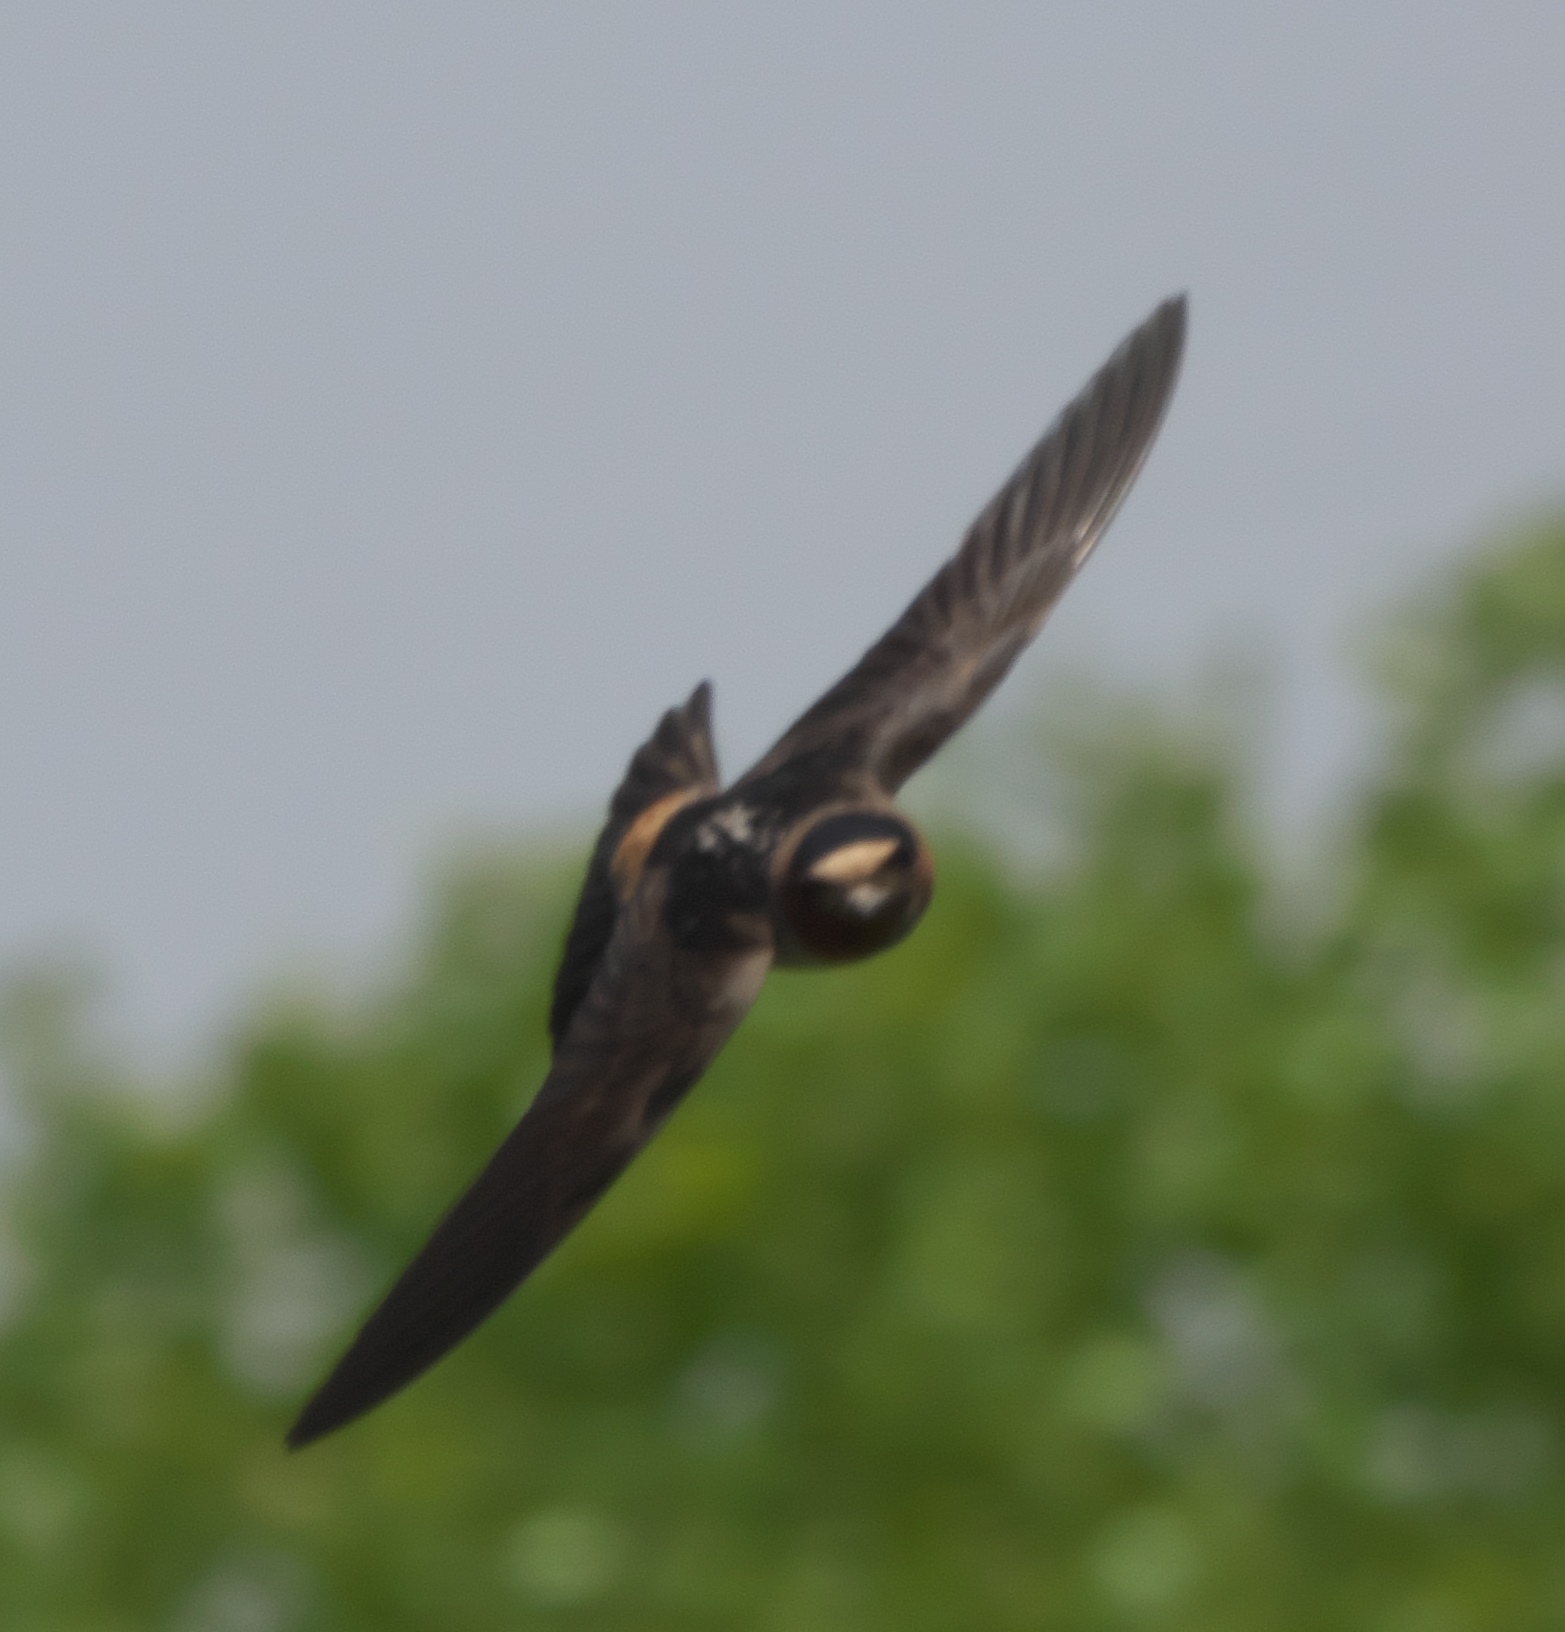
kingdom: Animalia
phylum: Chordata
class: Aves
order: Passeriformes
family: Hirundinidae
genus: Petrochelidon
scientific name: Petrochelidon pyrrhonota
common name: American cliff swallow
